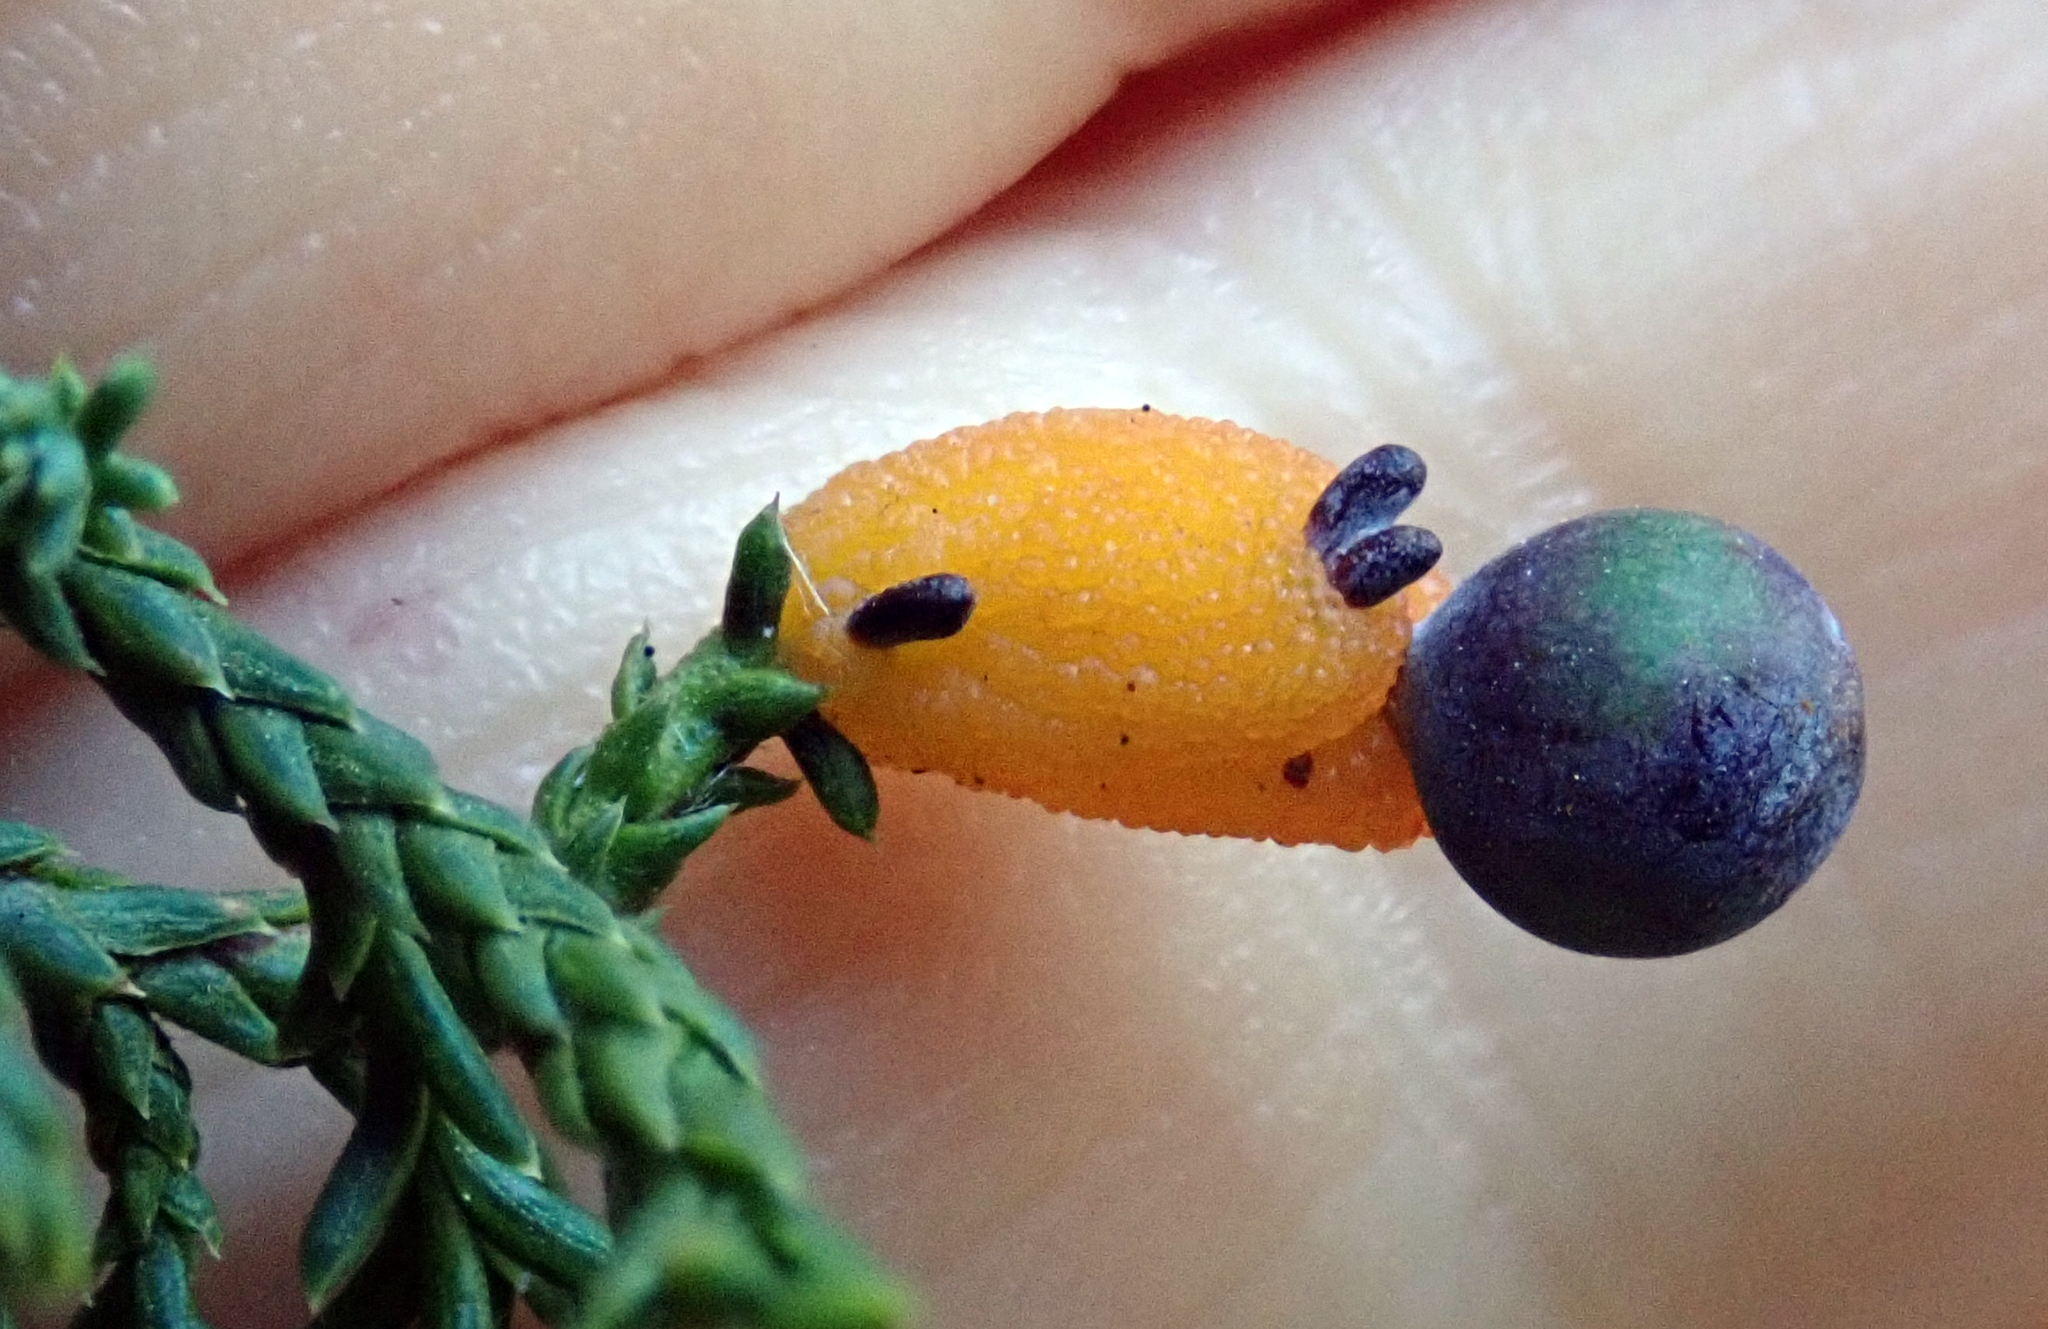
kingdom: Plantae
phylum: Tracheophyta
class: Pinopsida
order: Pinales
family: Podocarpaceae
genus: Dacrycarpus
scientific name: Dacrycarpus dacrydioides
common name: White pine
